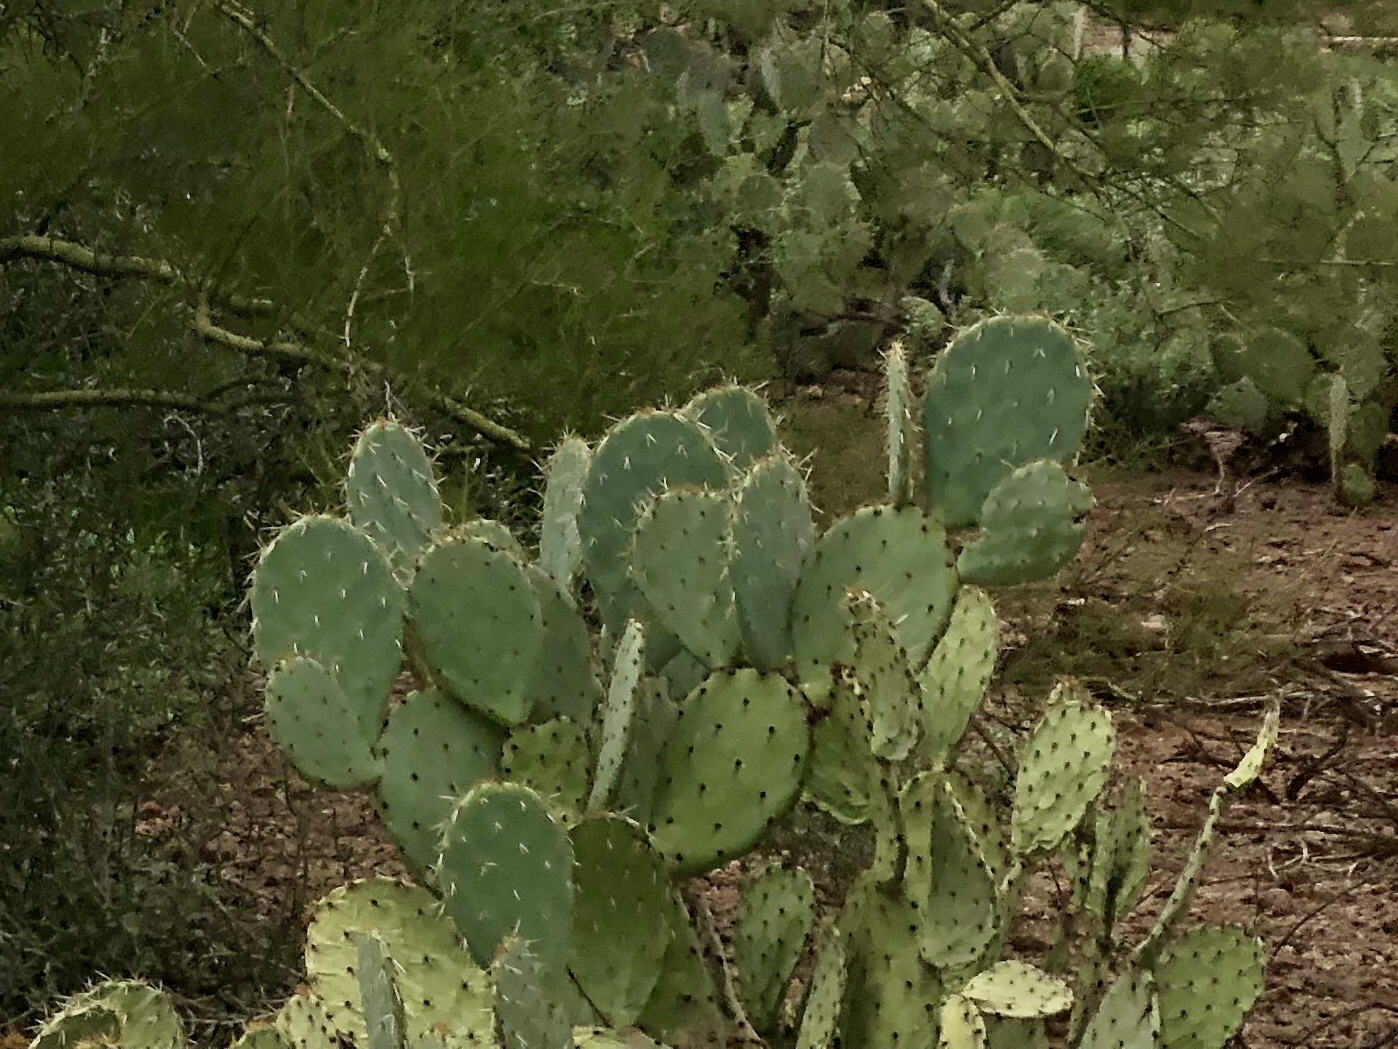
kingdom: Plantae
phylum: Tracheophyta
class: Magnoliopsida
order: Caryophyllales
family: Cactaceae
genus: Opuntia
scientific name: Opuntia engelmannii
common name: Cactus-apple
